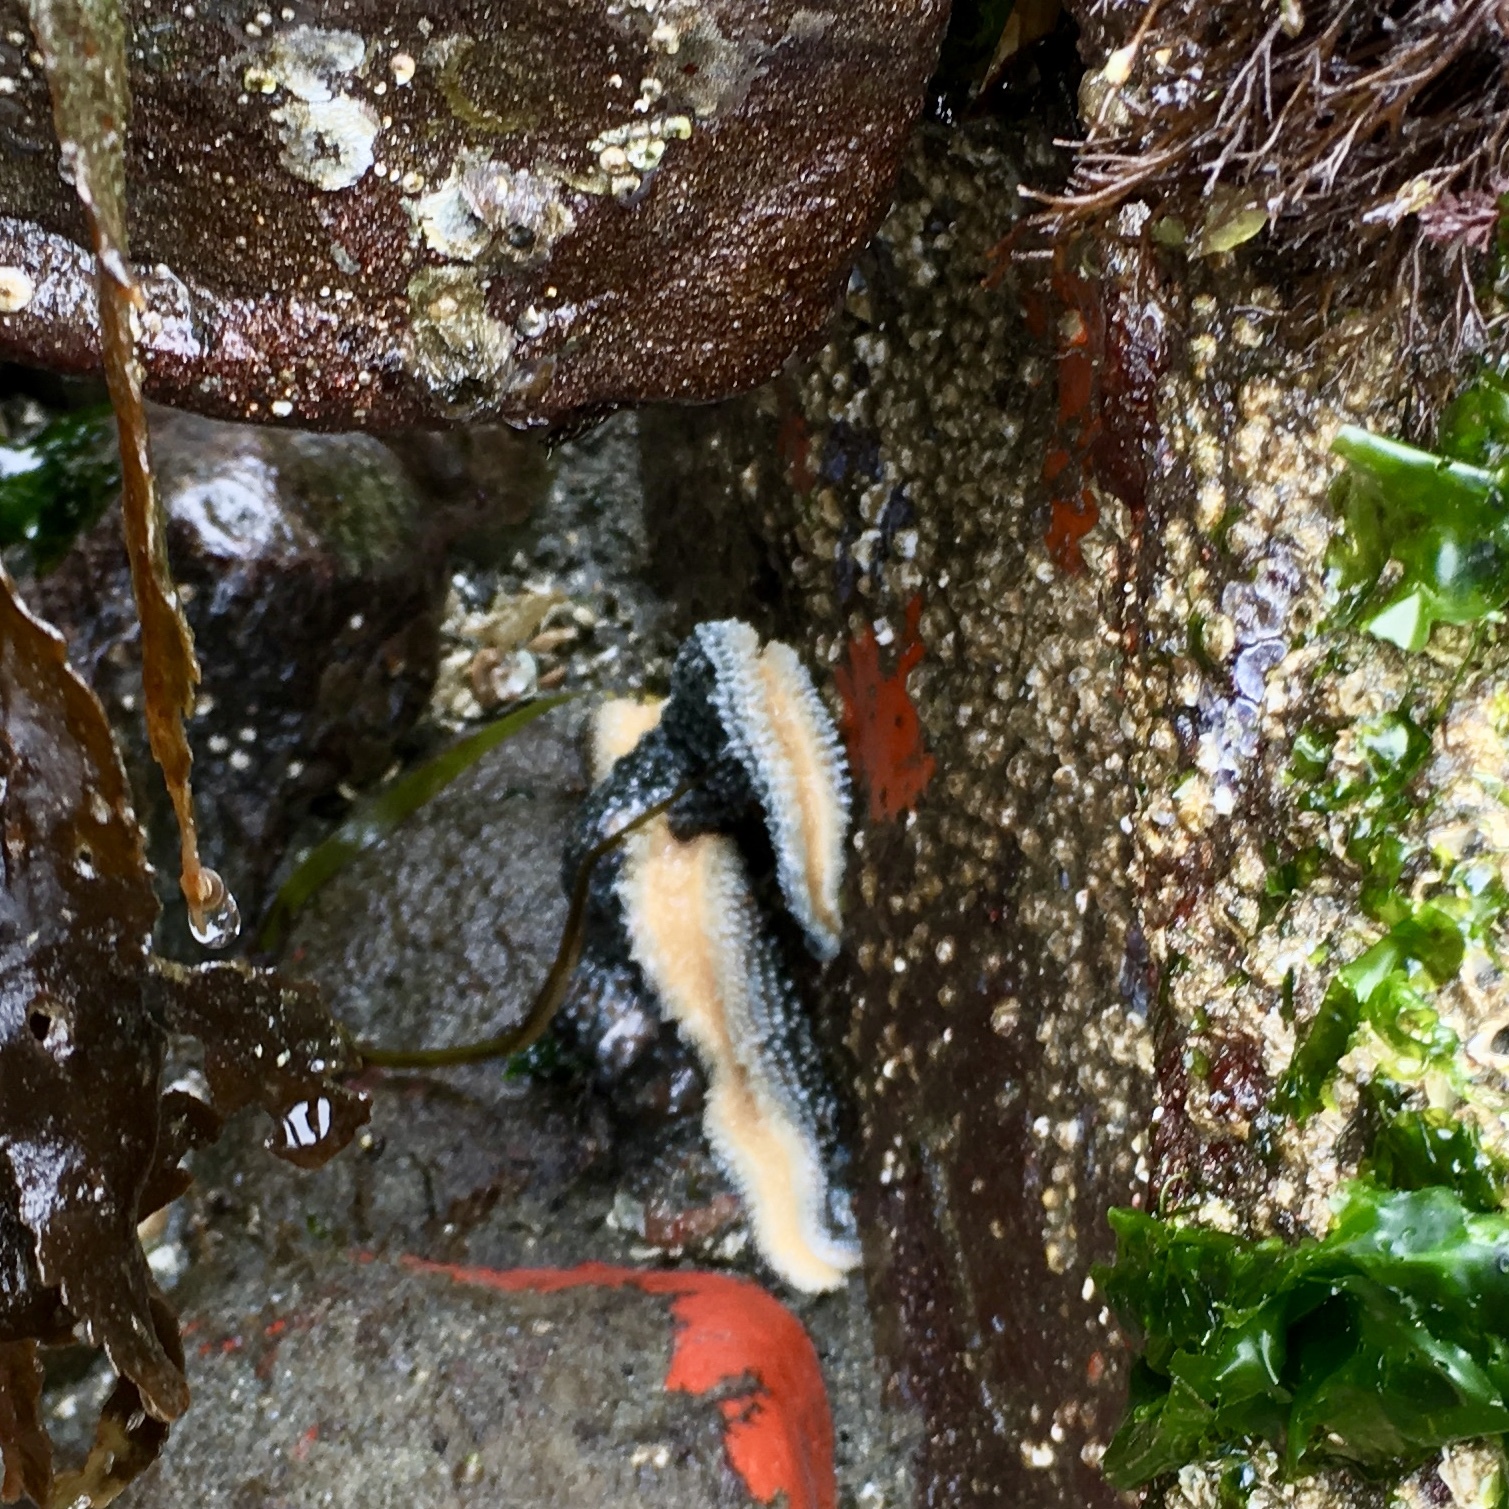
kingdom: Animalia
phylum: Echinodermata
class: Asteroidea
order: Forcipulatida
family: Asteriidae
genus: Evasterias
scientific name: Evasterias troschelii
